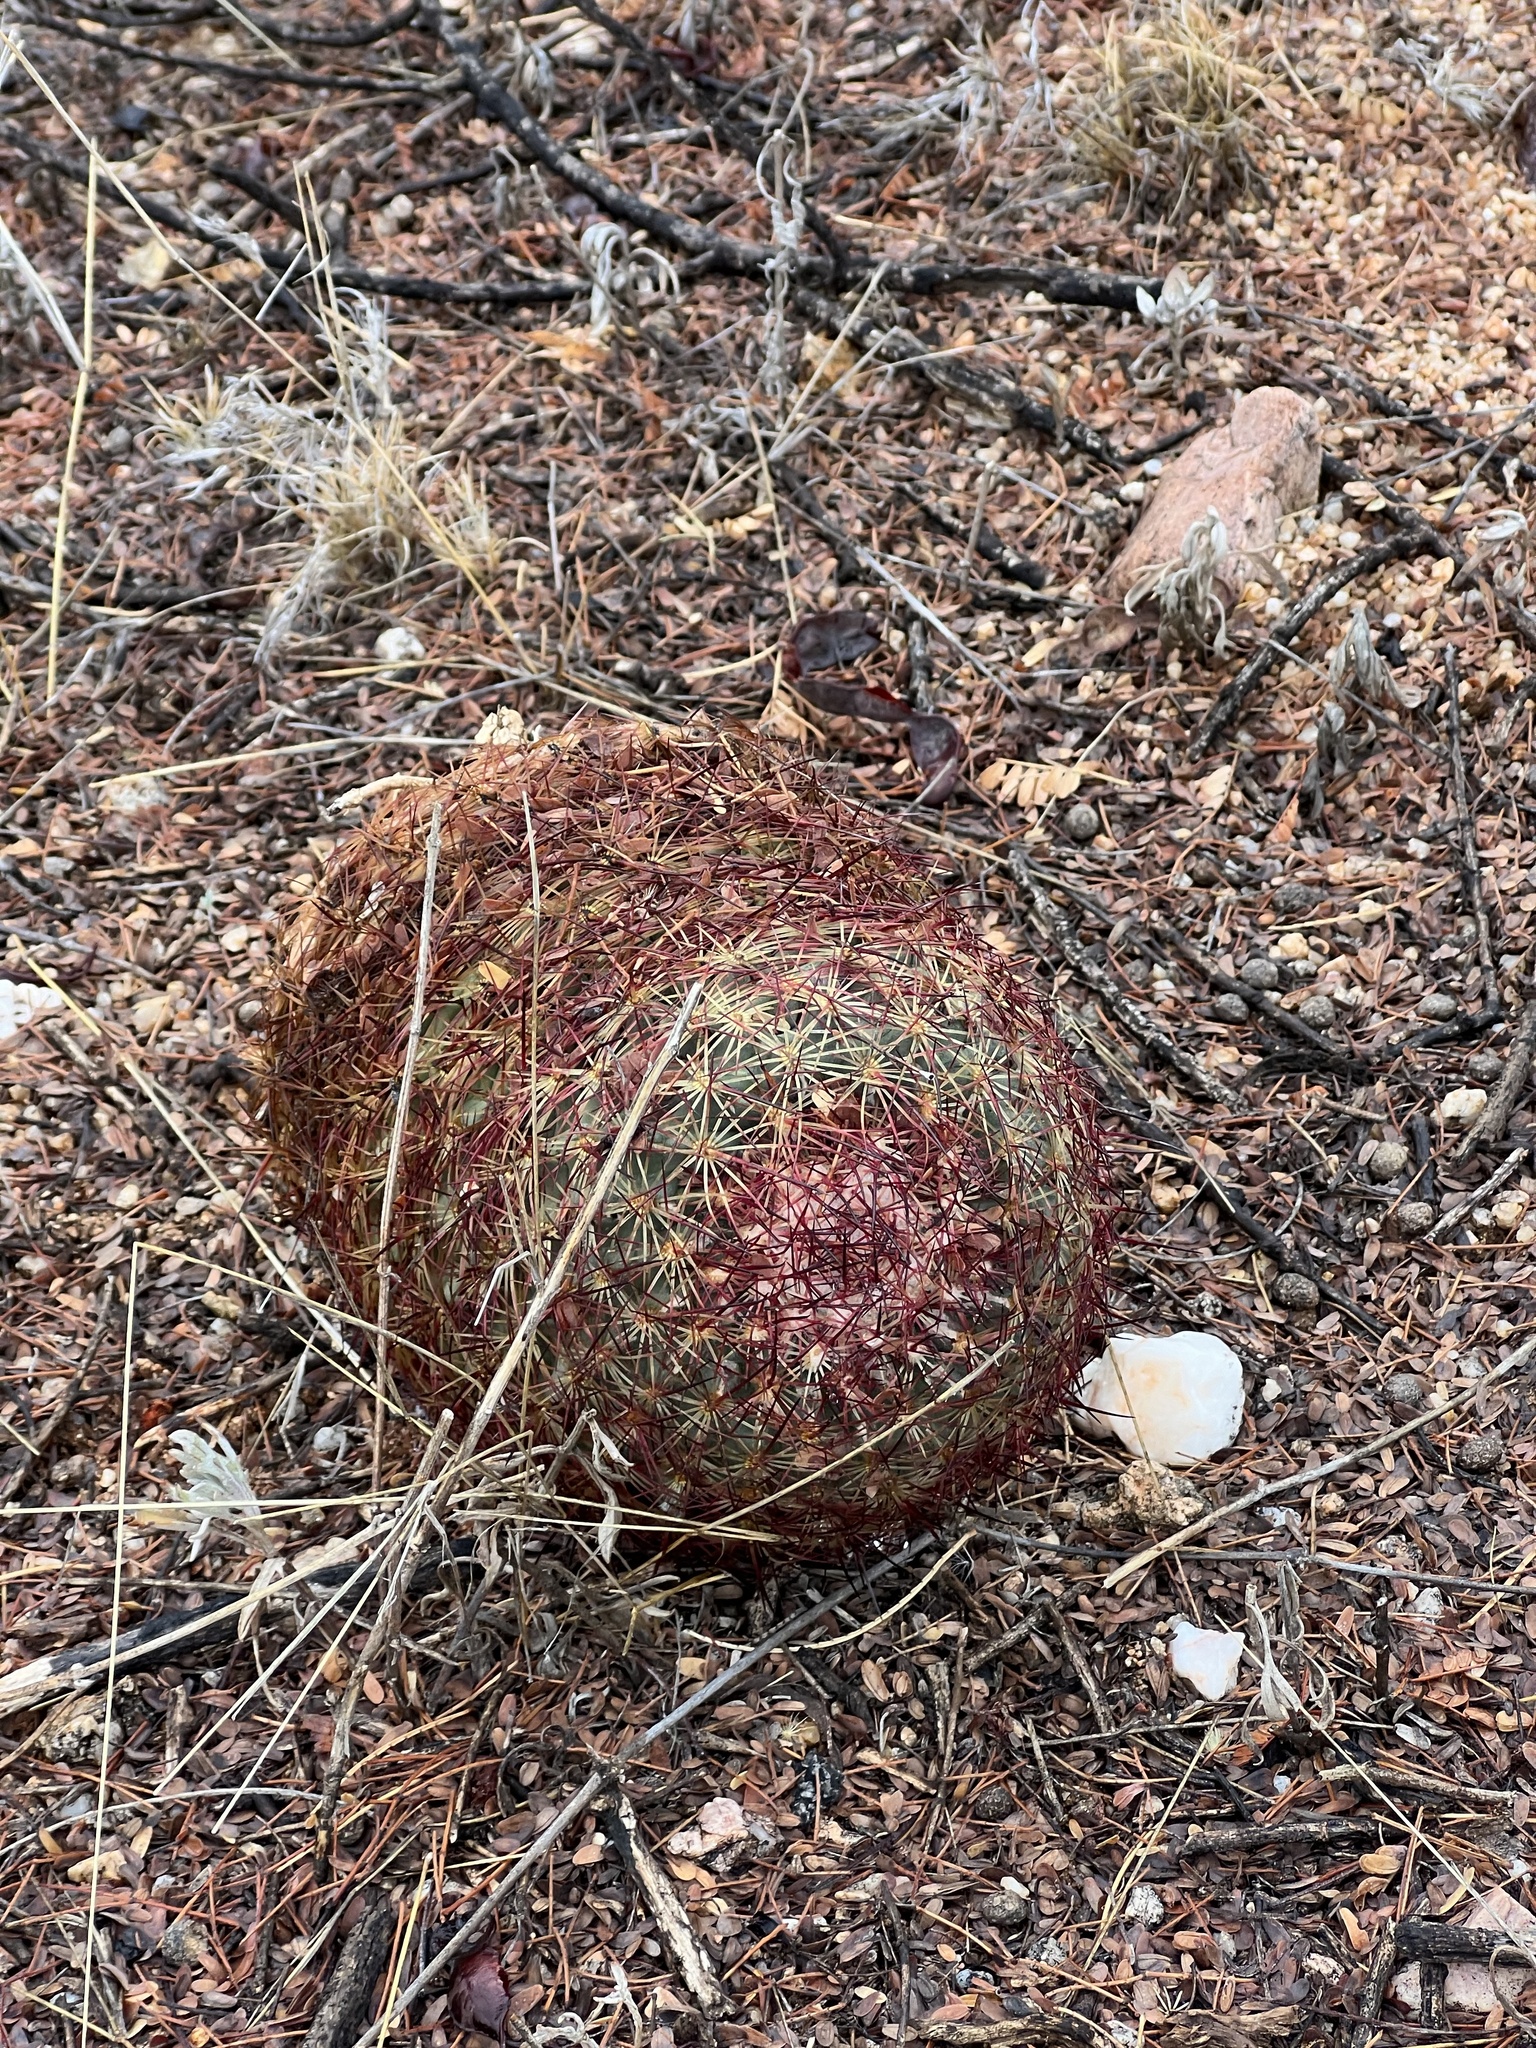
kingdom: Plantae
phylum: Tracheophyta
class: Magnoliopsida
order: Caryophyllales
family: Cactaceae
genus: Sclerocactus
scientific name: Sclerocactus johnsonii
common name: Eight-spine fishhook cactus
